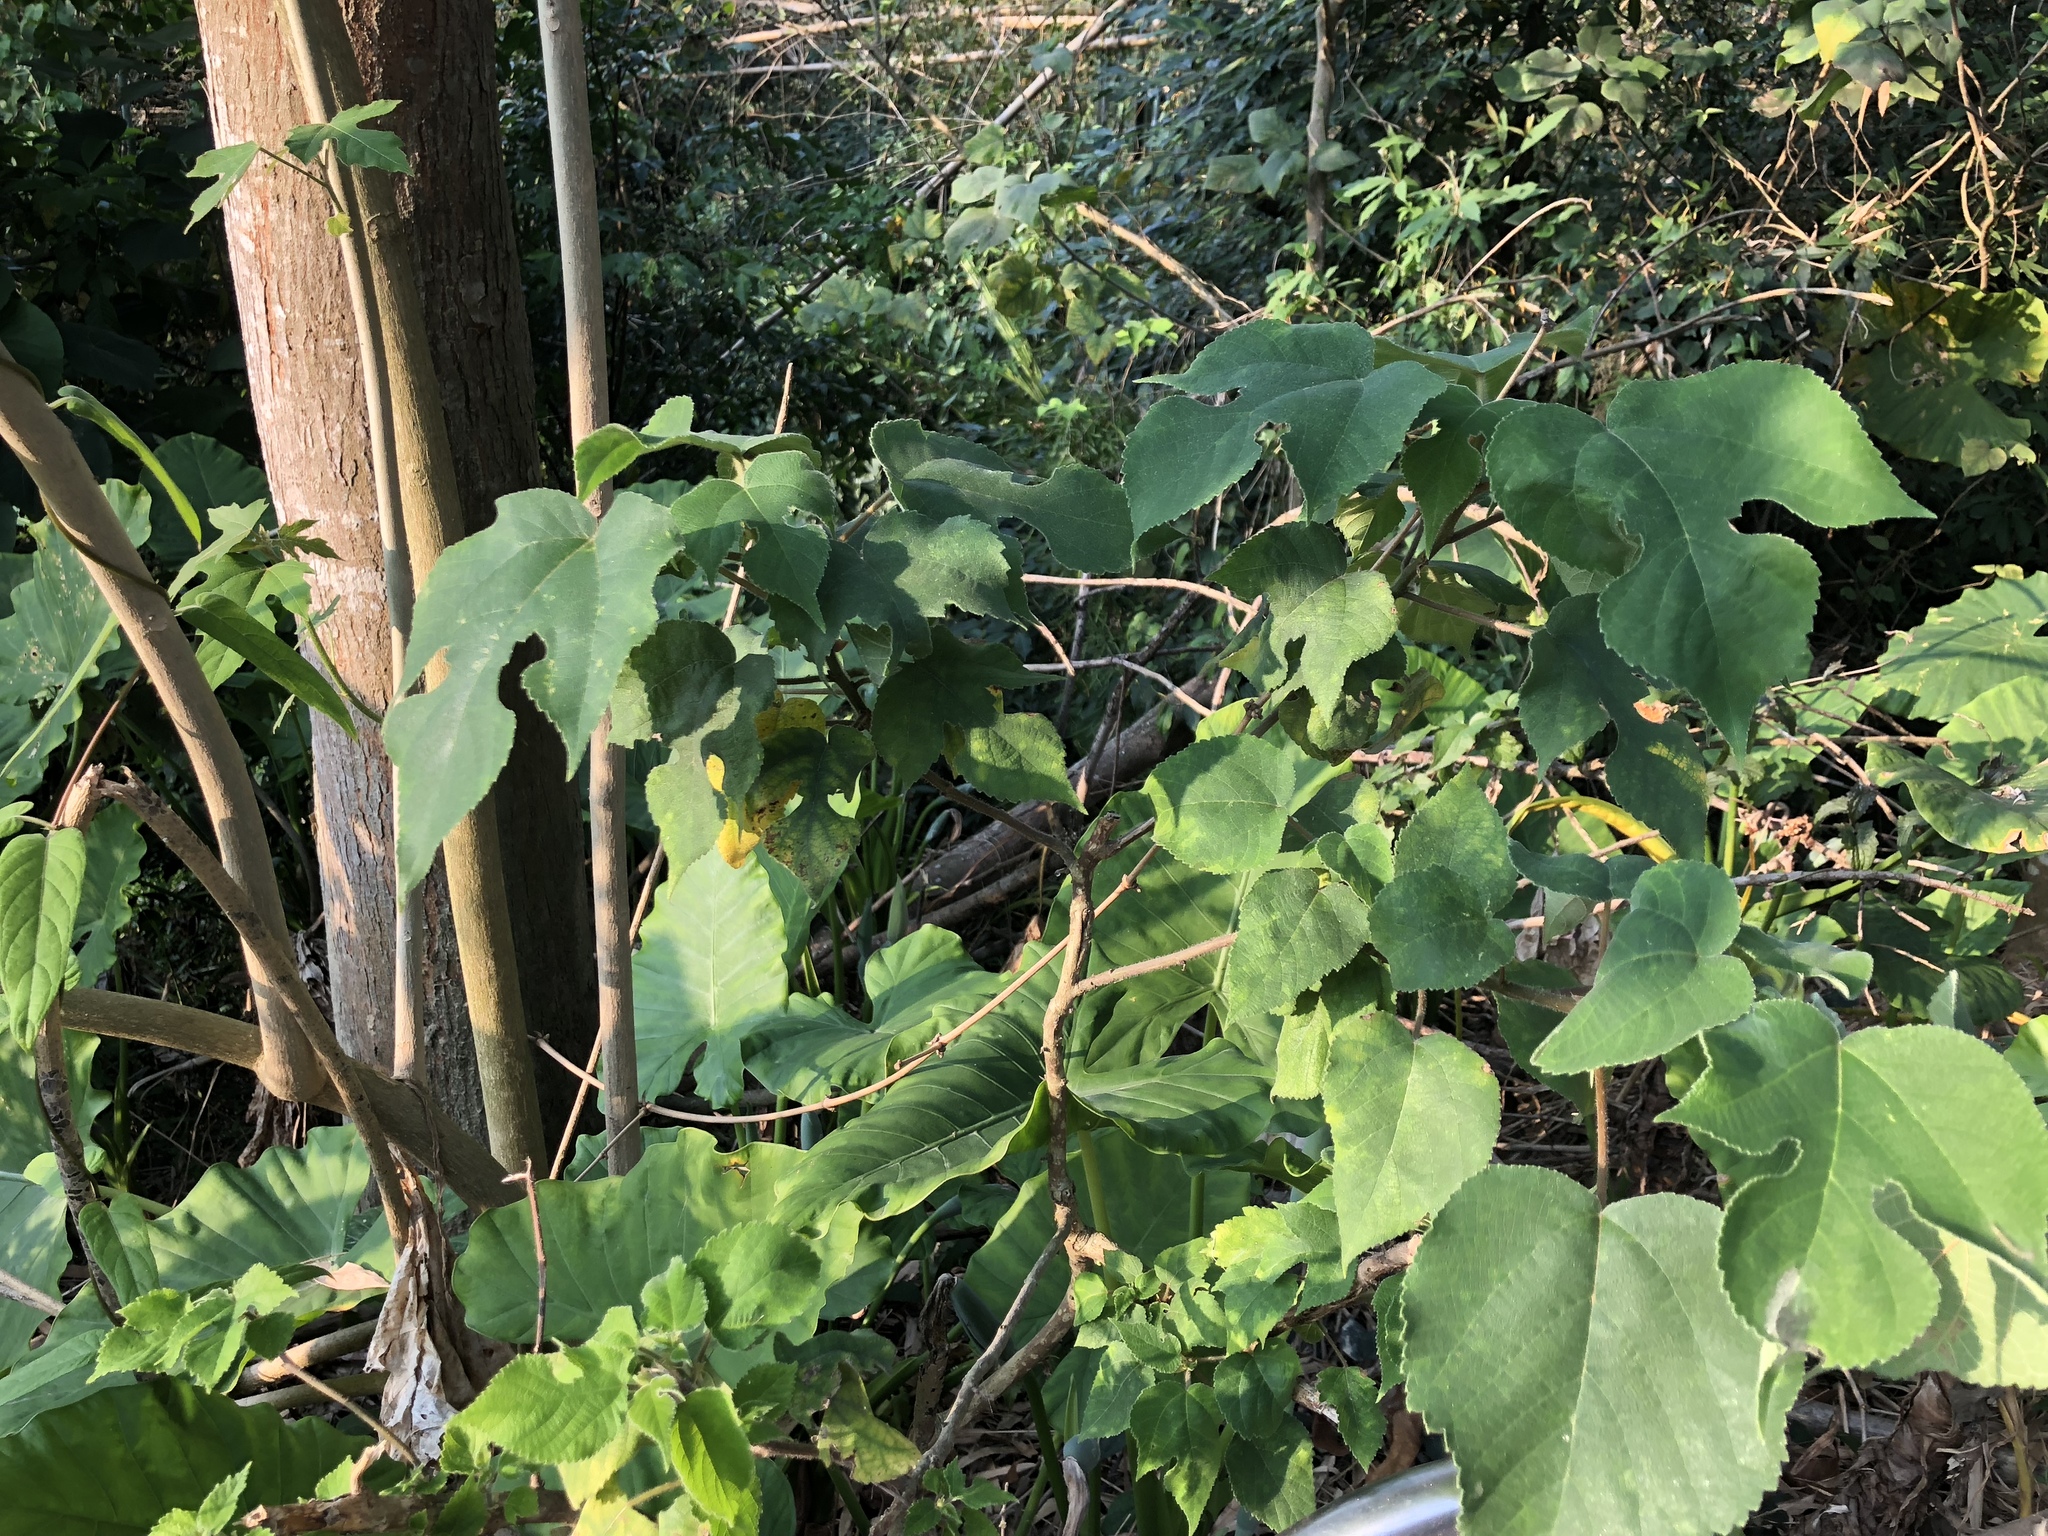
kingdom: Plantae
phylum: Tracheophyta
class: Magnoliopsida
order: Rosales
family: Moraceae
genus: Broussonetia
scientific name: Broussonetia papyrifera
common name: Paper mulberry
